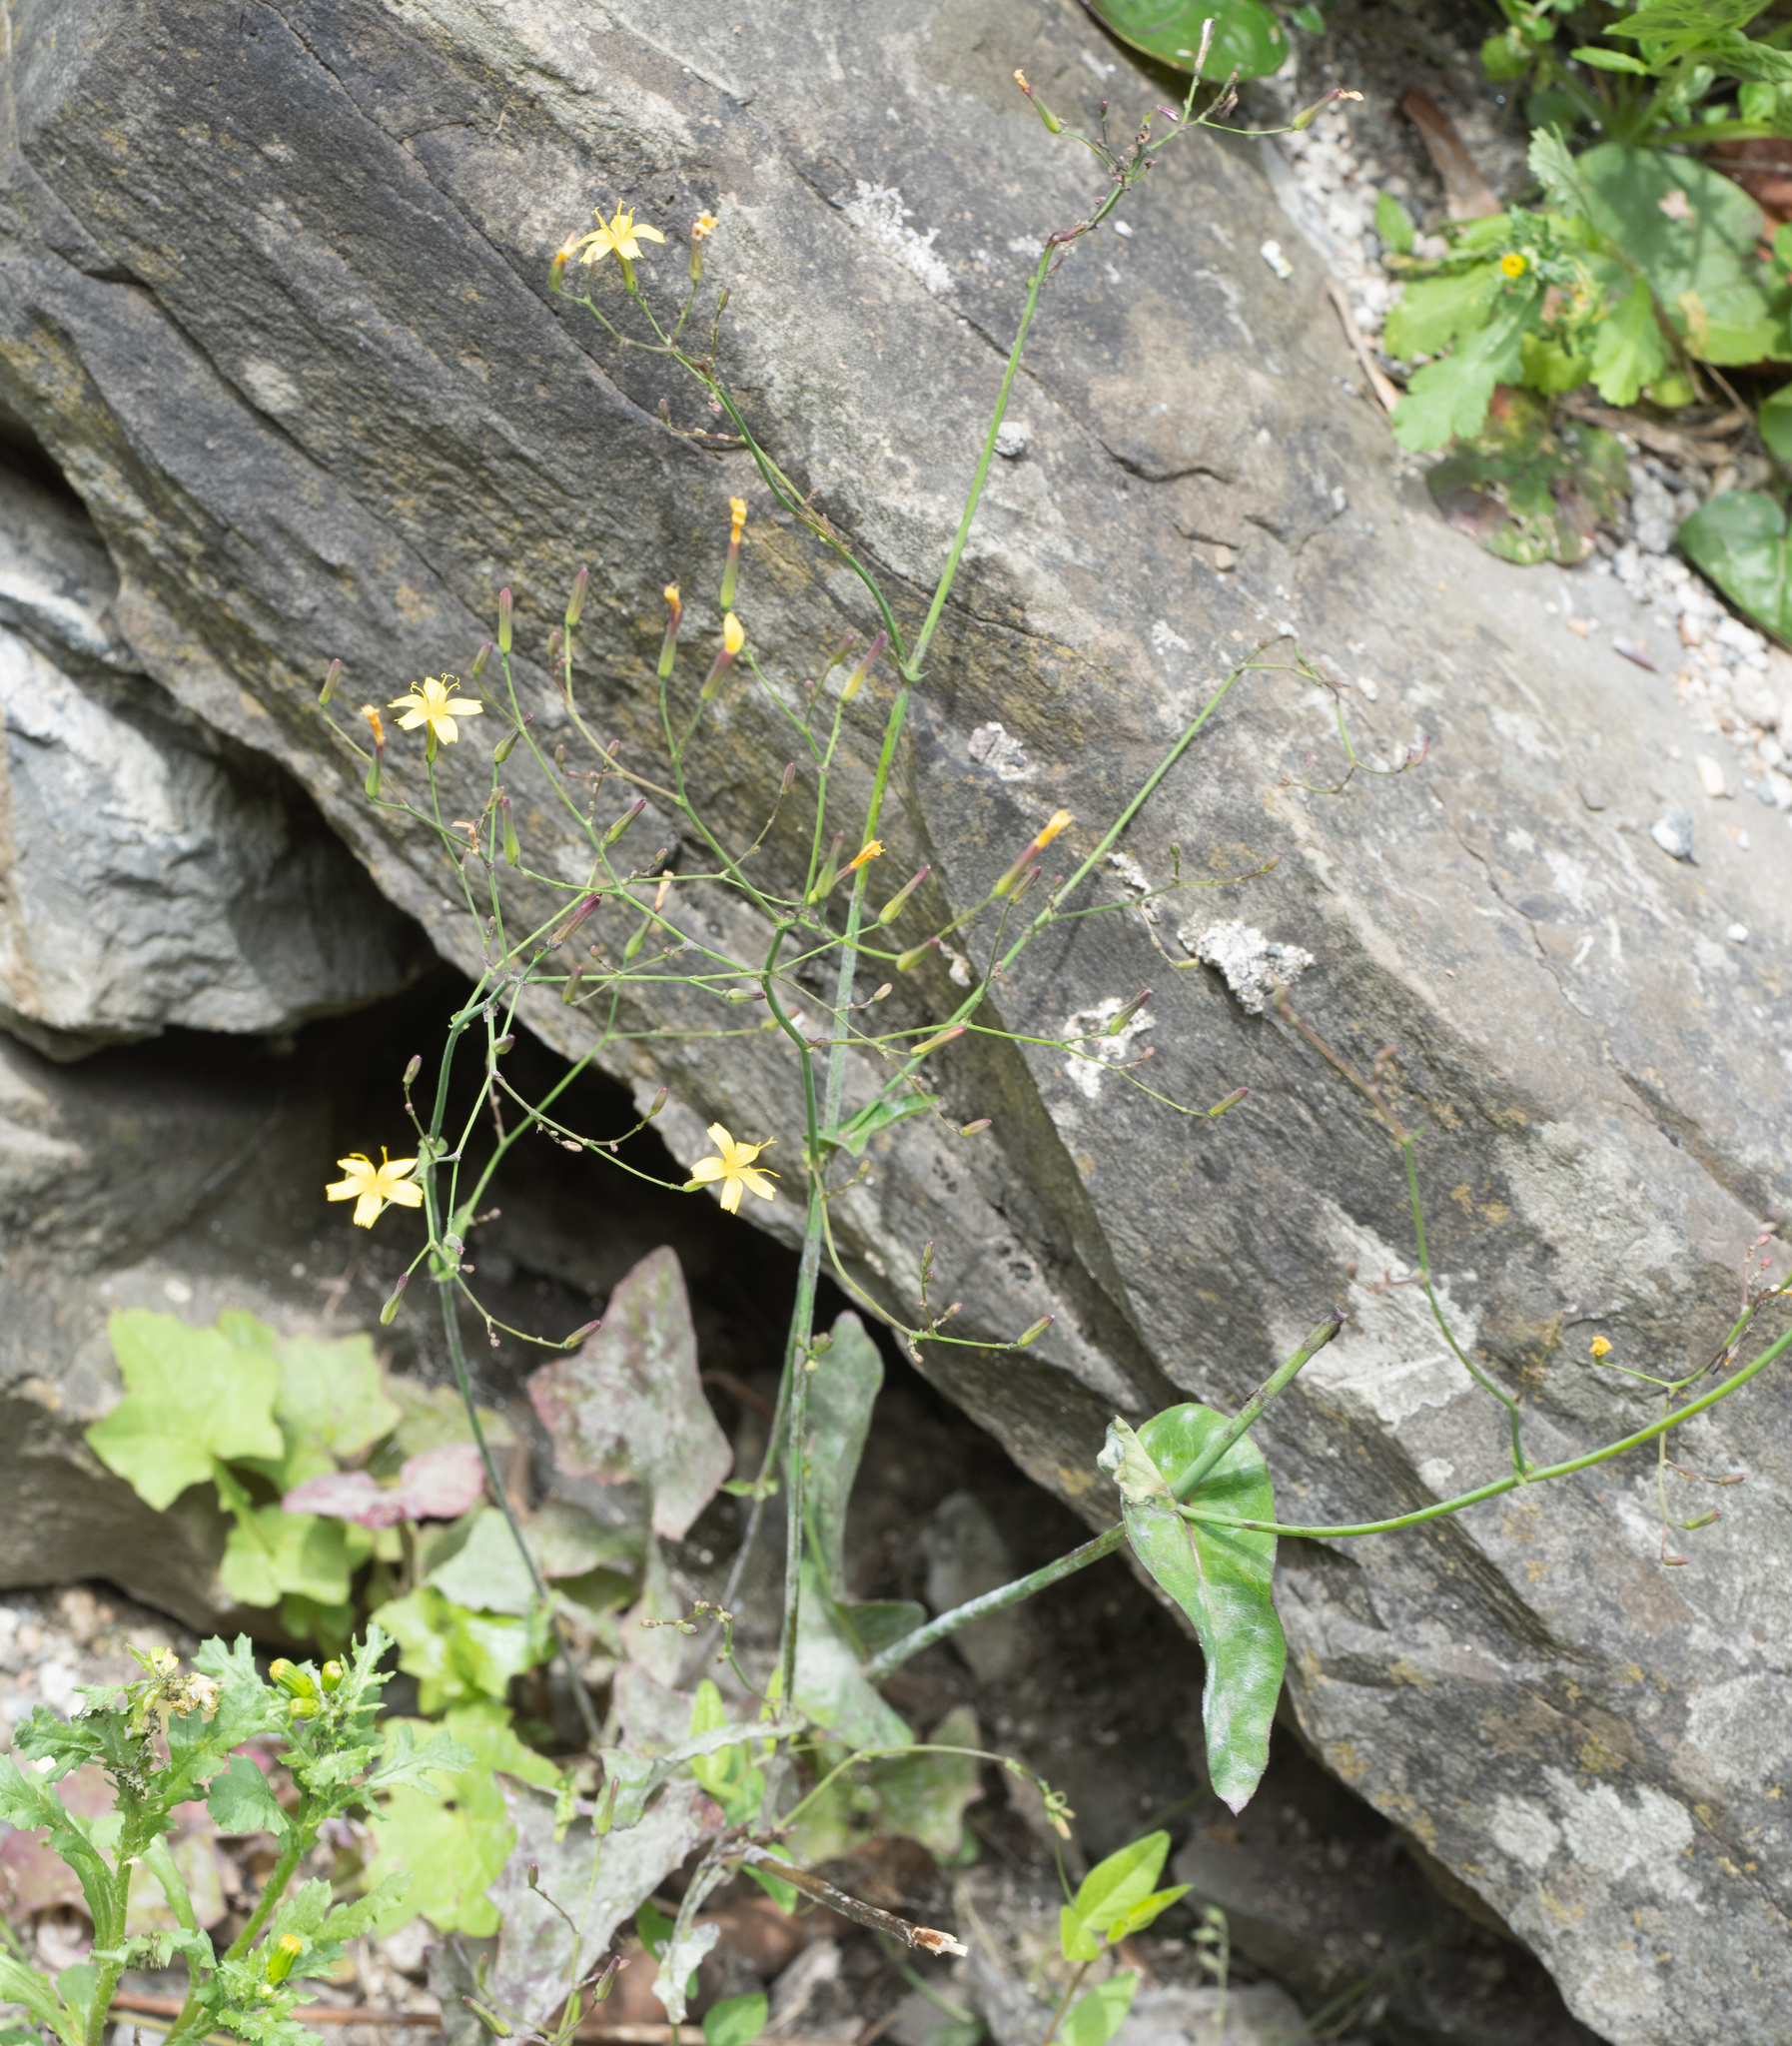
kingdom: Plantae
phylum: Tracheophyta
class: Magnoliopsida
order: Asterales
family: Asteraceae
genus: Mycelis
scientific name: Mycelis muralis
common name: Wall lettuce
